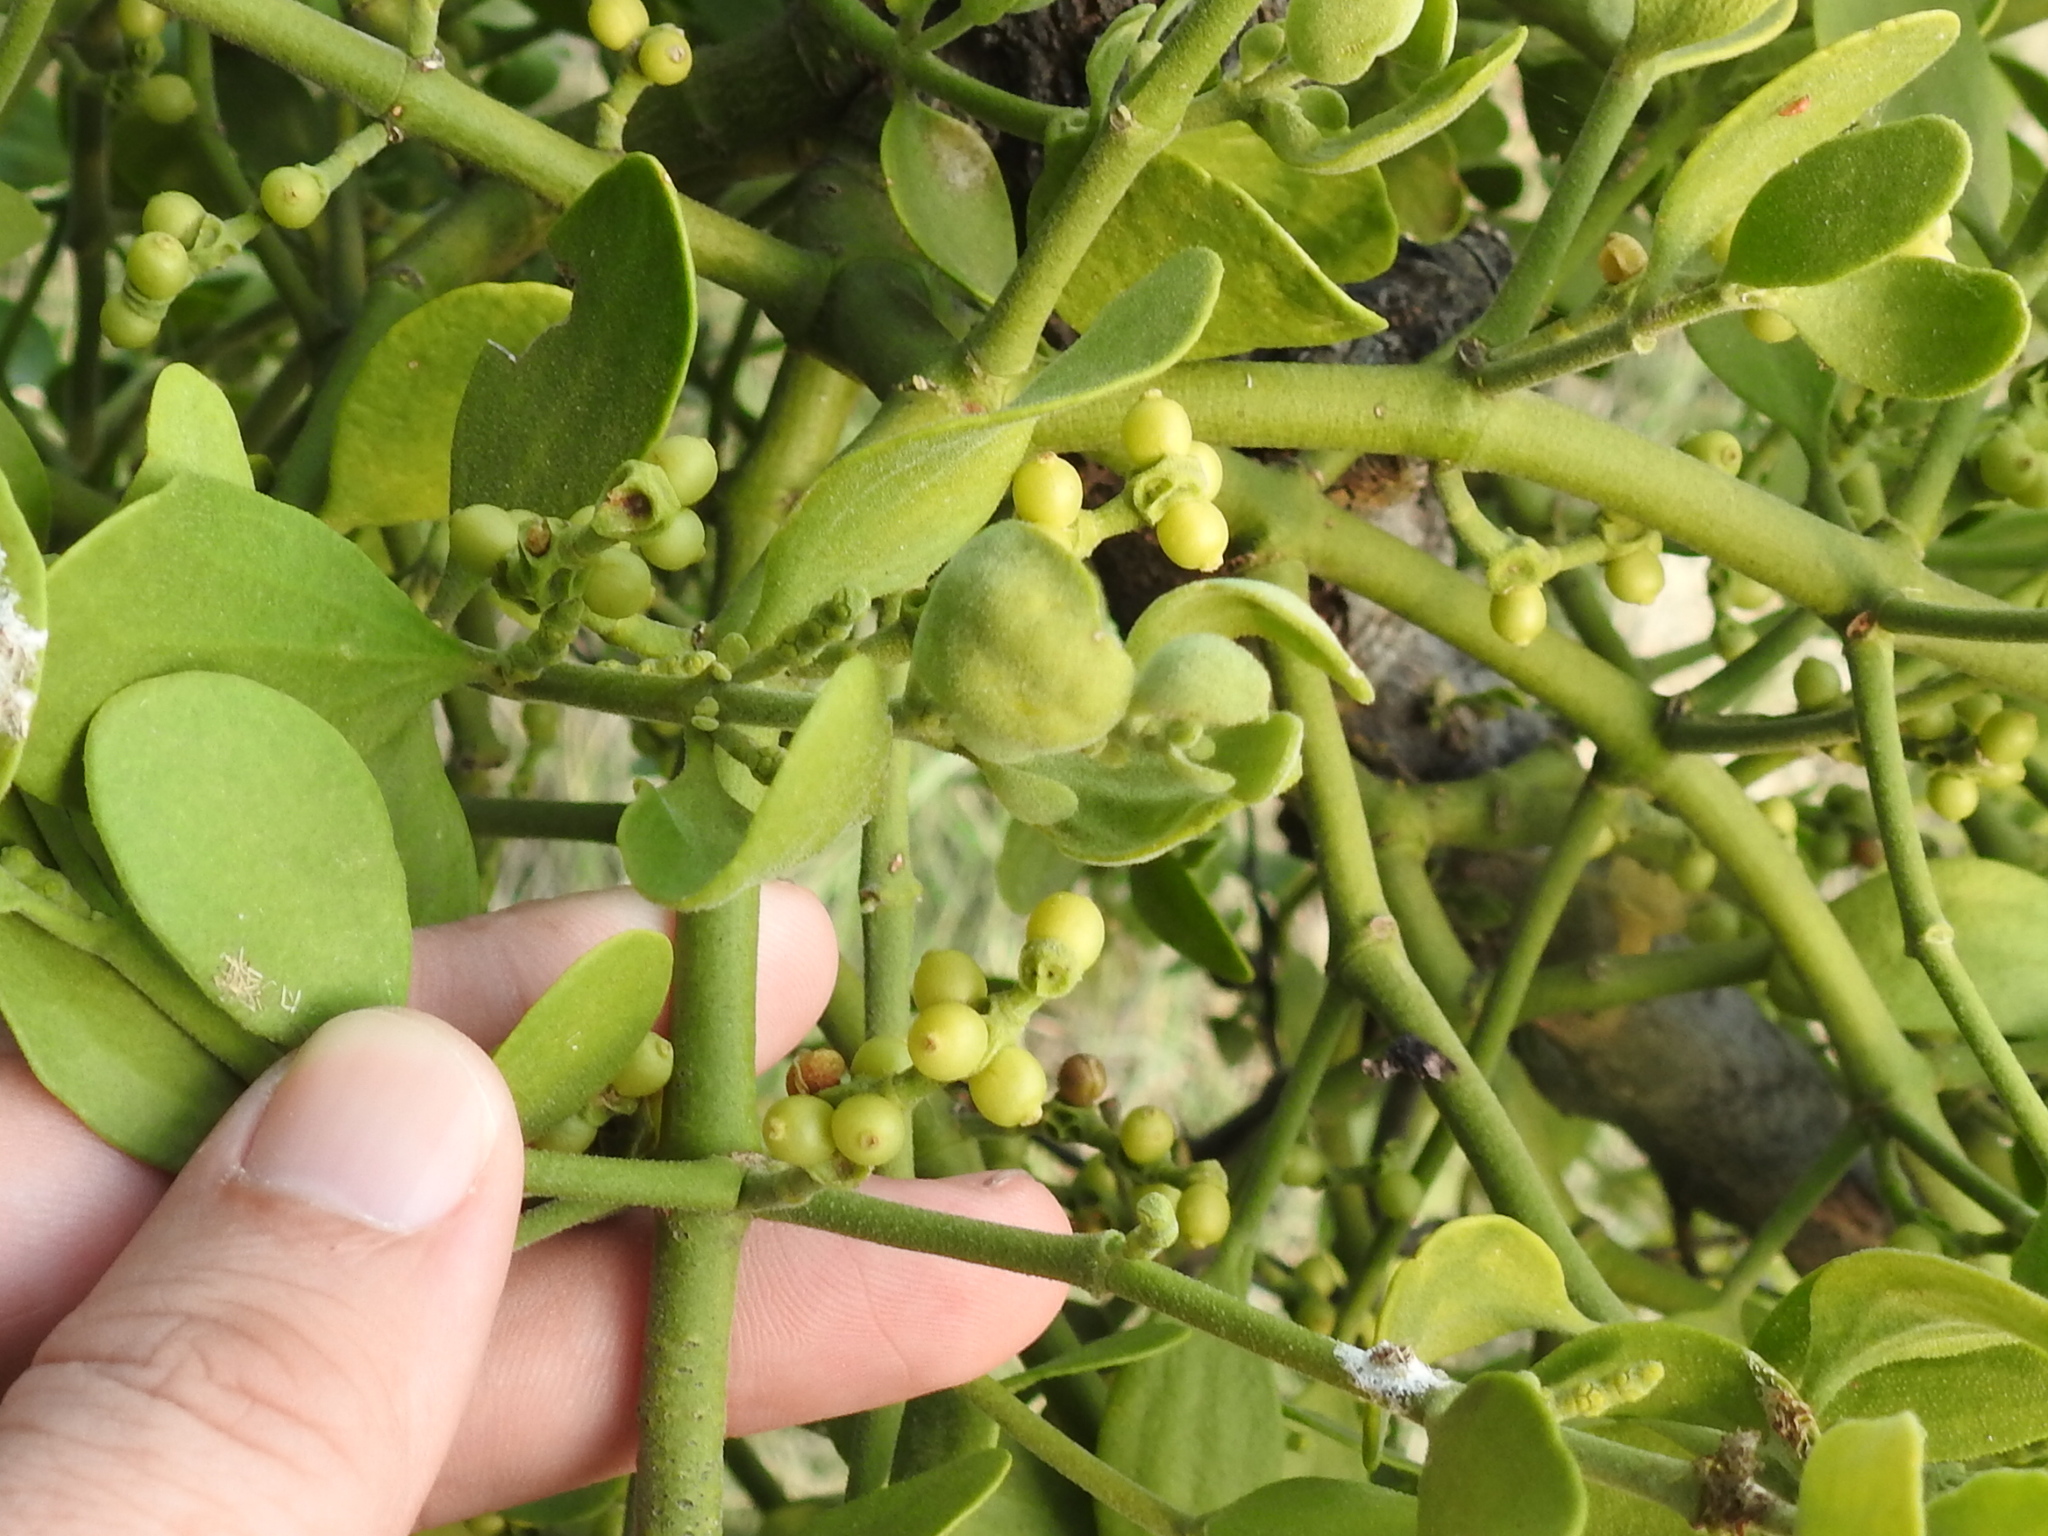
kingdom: Plantae
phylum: Tracheophyta
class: Magnoliopsida
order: Santalales
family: Viscaceae
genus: Phoradendron
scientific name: Phoradendron leucarpum
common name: Pacific mistletoe
